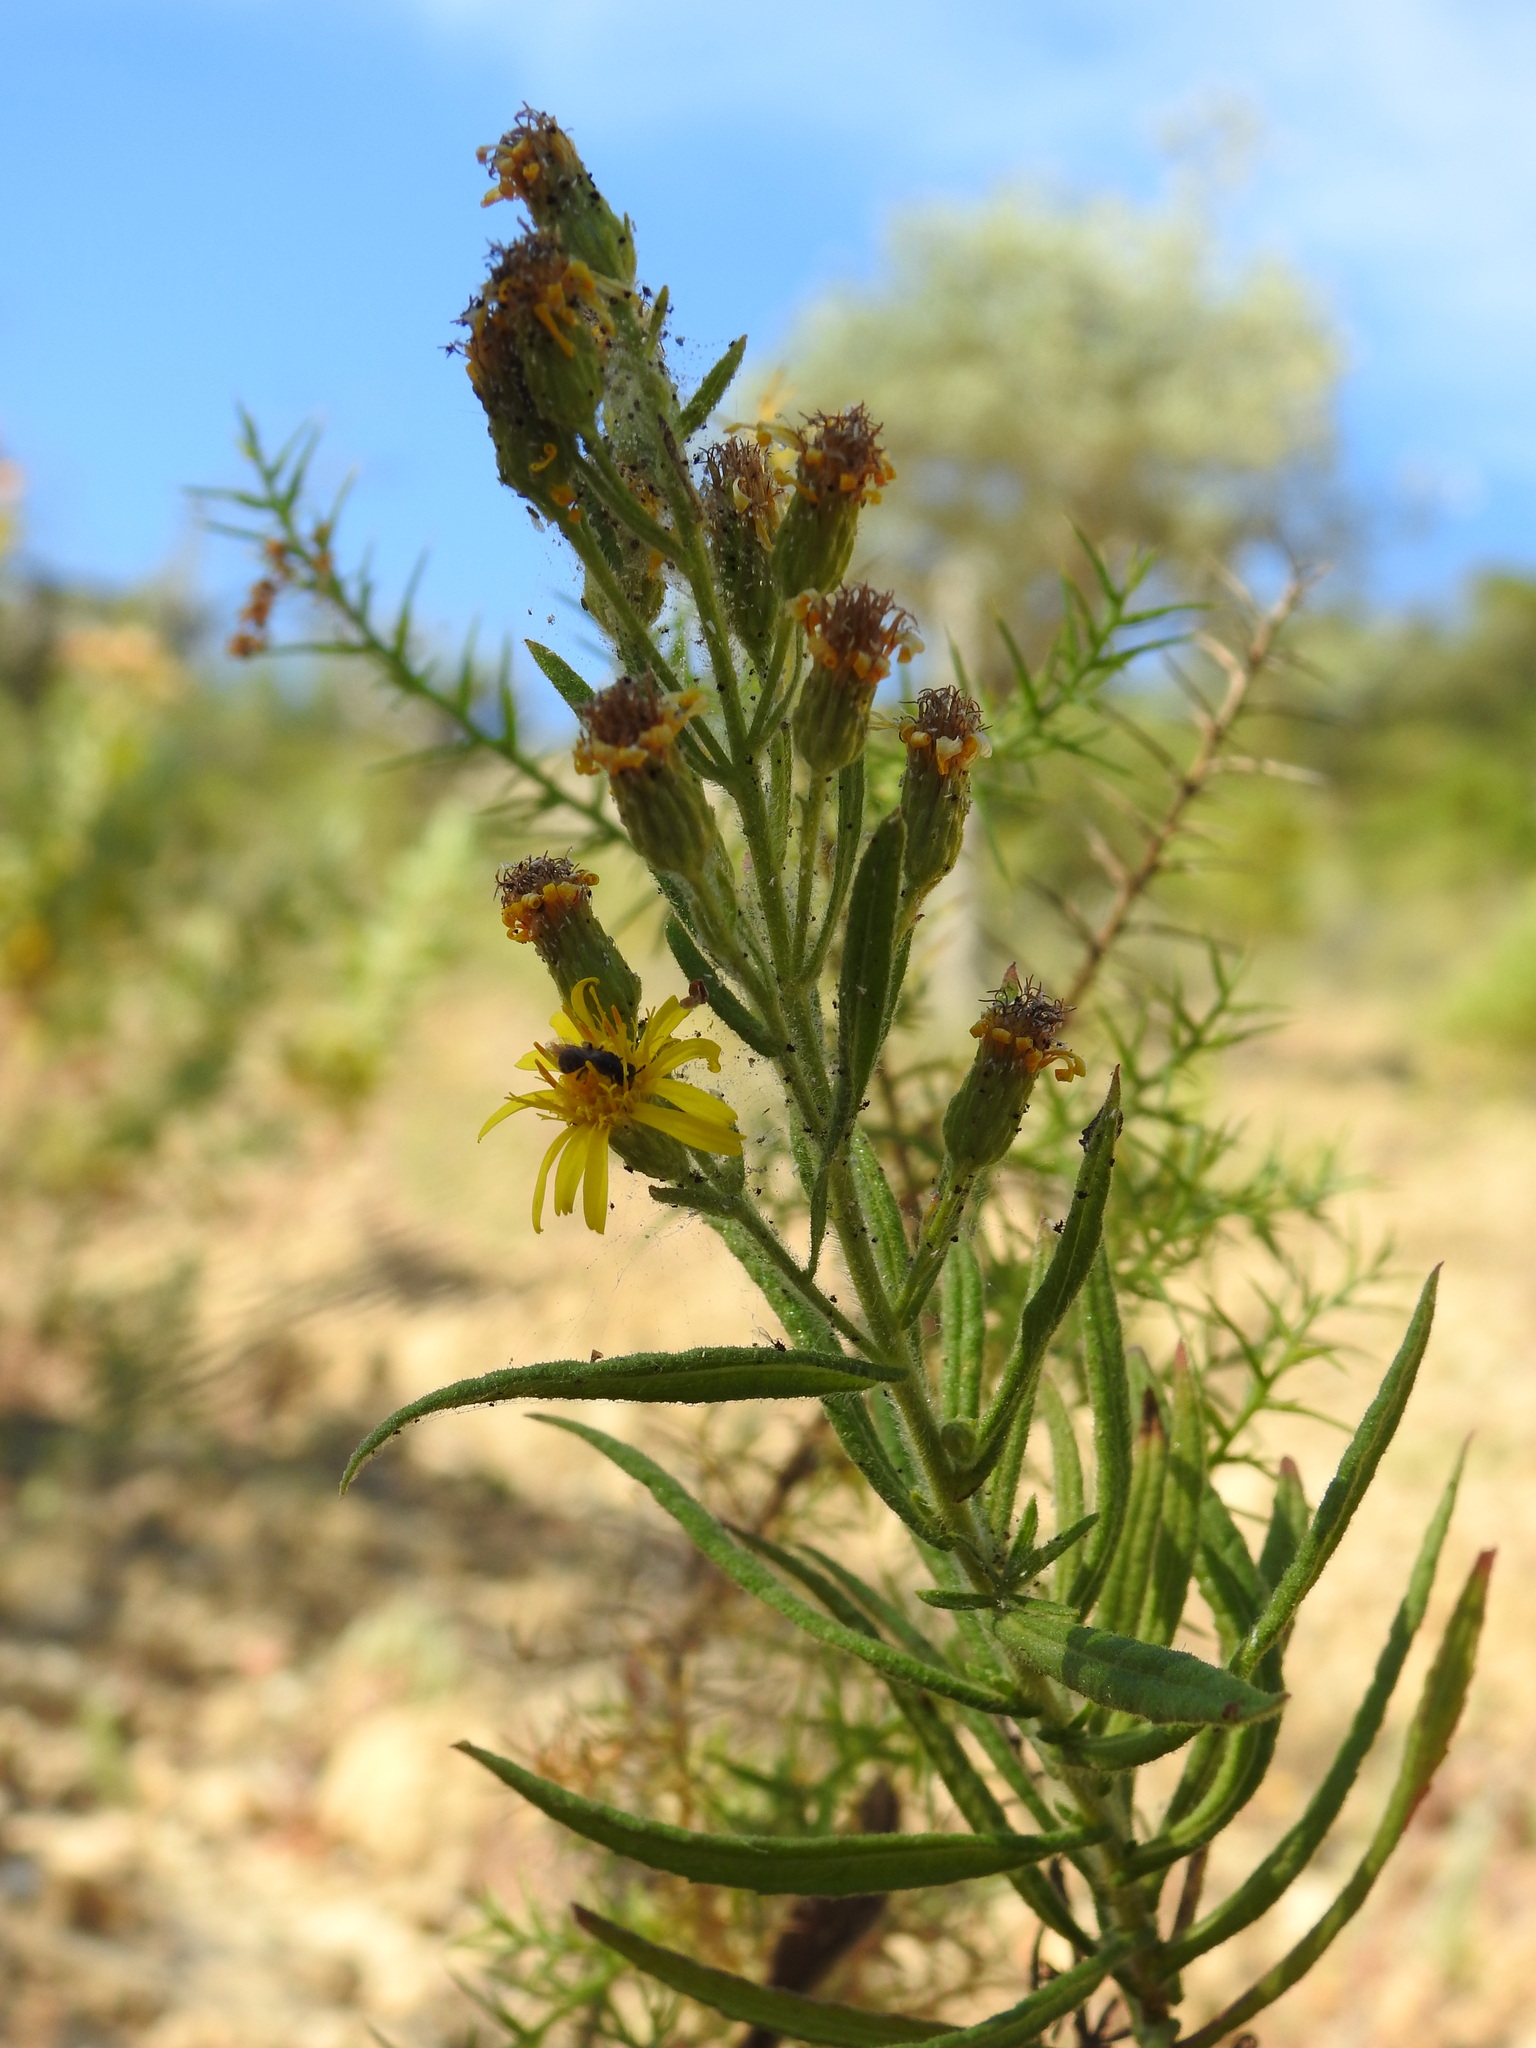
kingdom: Plantae
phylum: Tracheophyta
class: Magnoliopsida
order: Asterales
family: Asteraceae
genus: Dittrichia
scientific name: Dittrichia viscosa
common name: Woody fleabane
